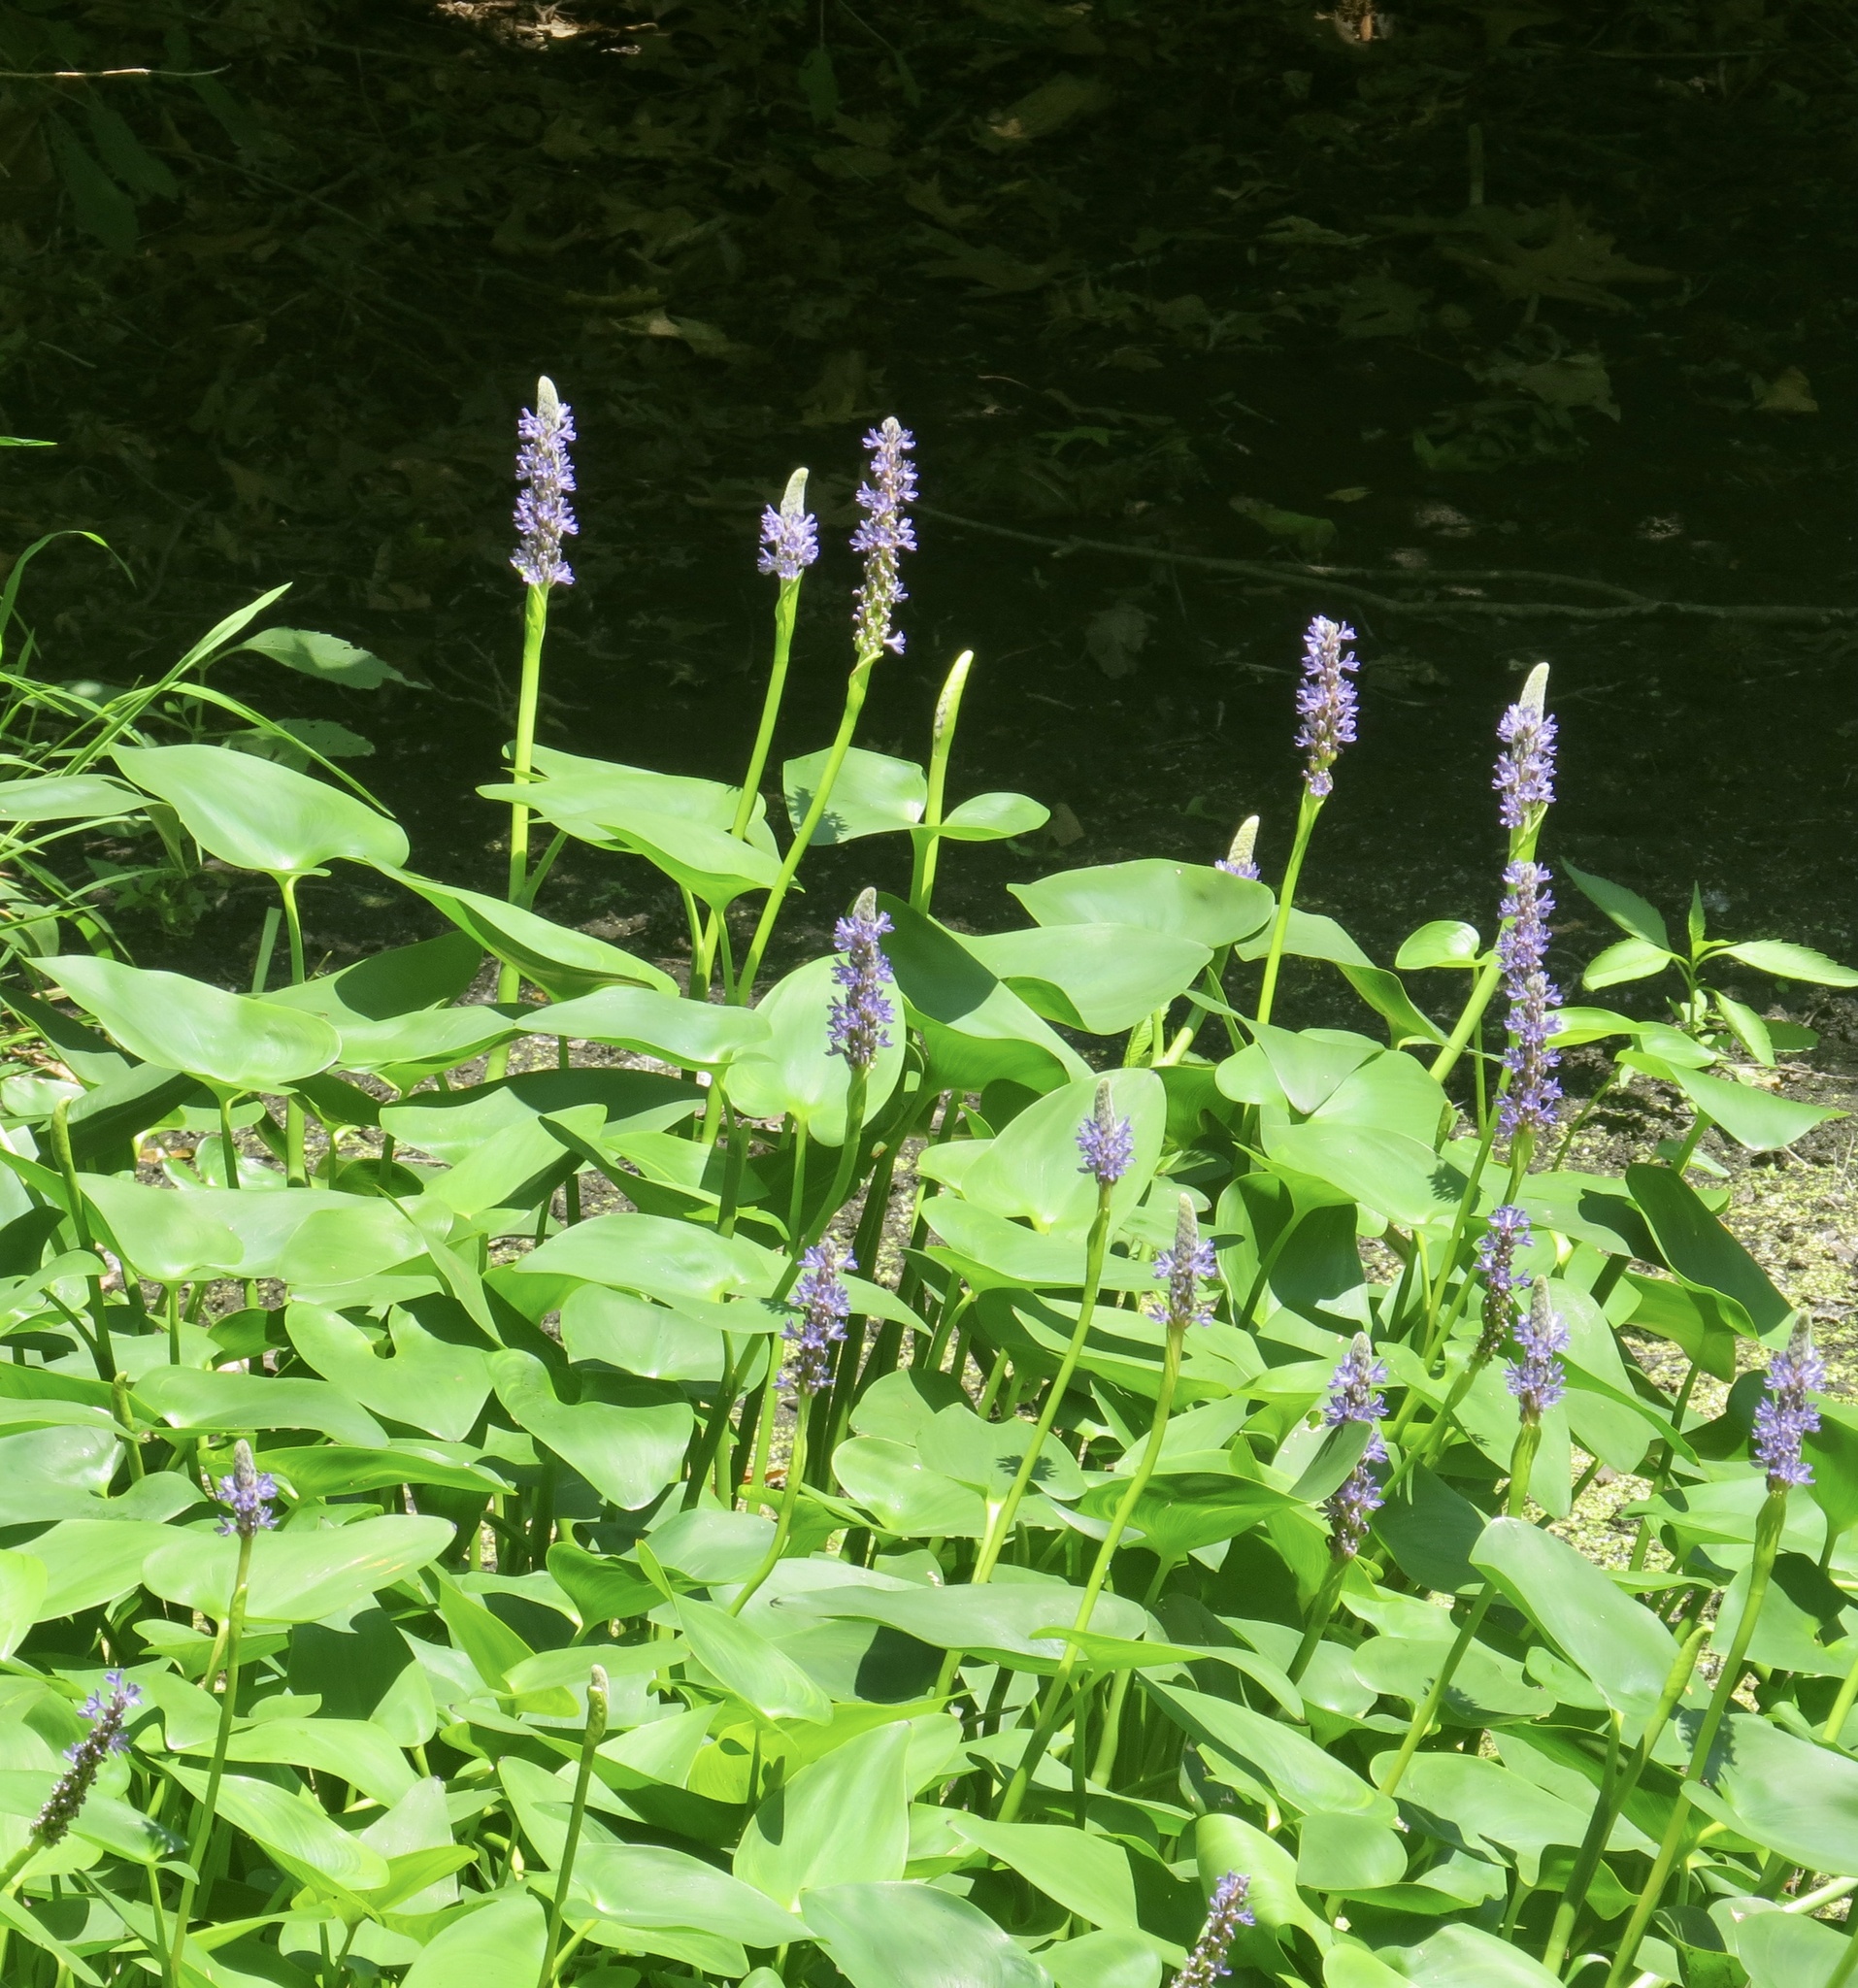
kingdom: Plantae
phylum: Tracheophyta
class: Liliopsida
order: Commelinales
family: Pontederiaceae
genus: Pontederia
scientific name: Pontederia cordata
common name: Pickerelweed
